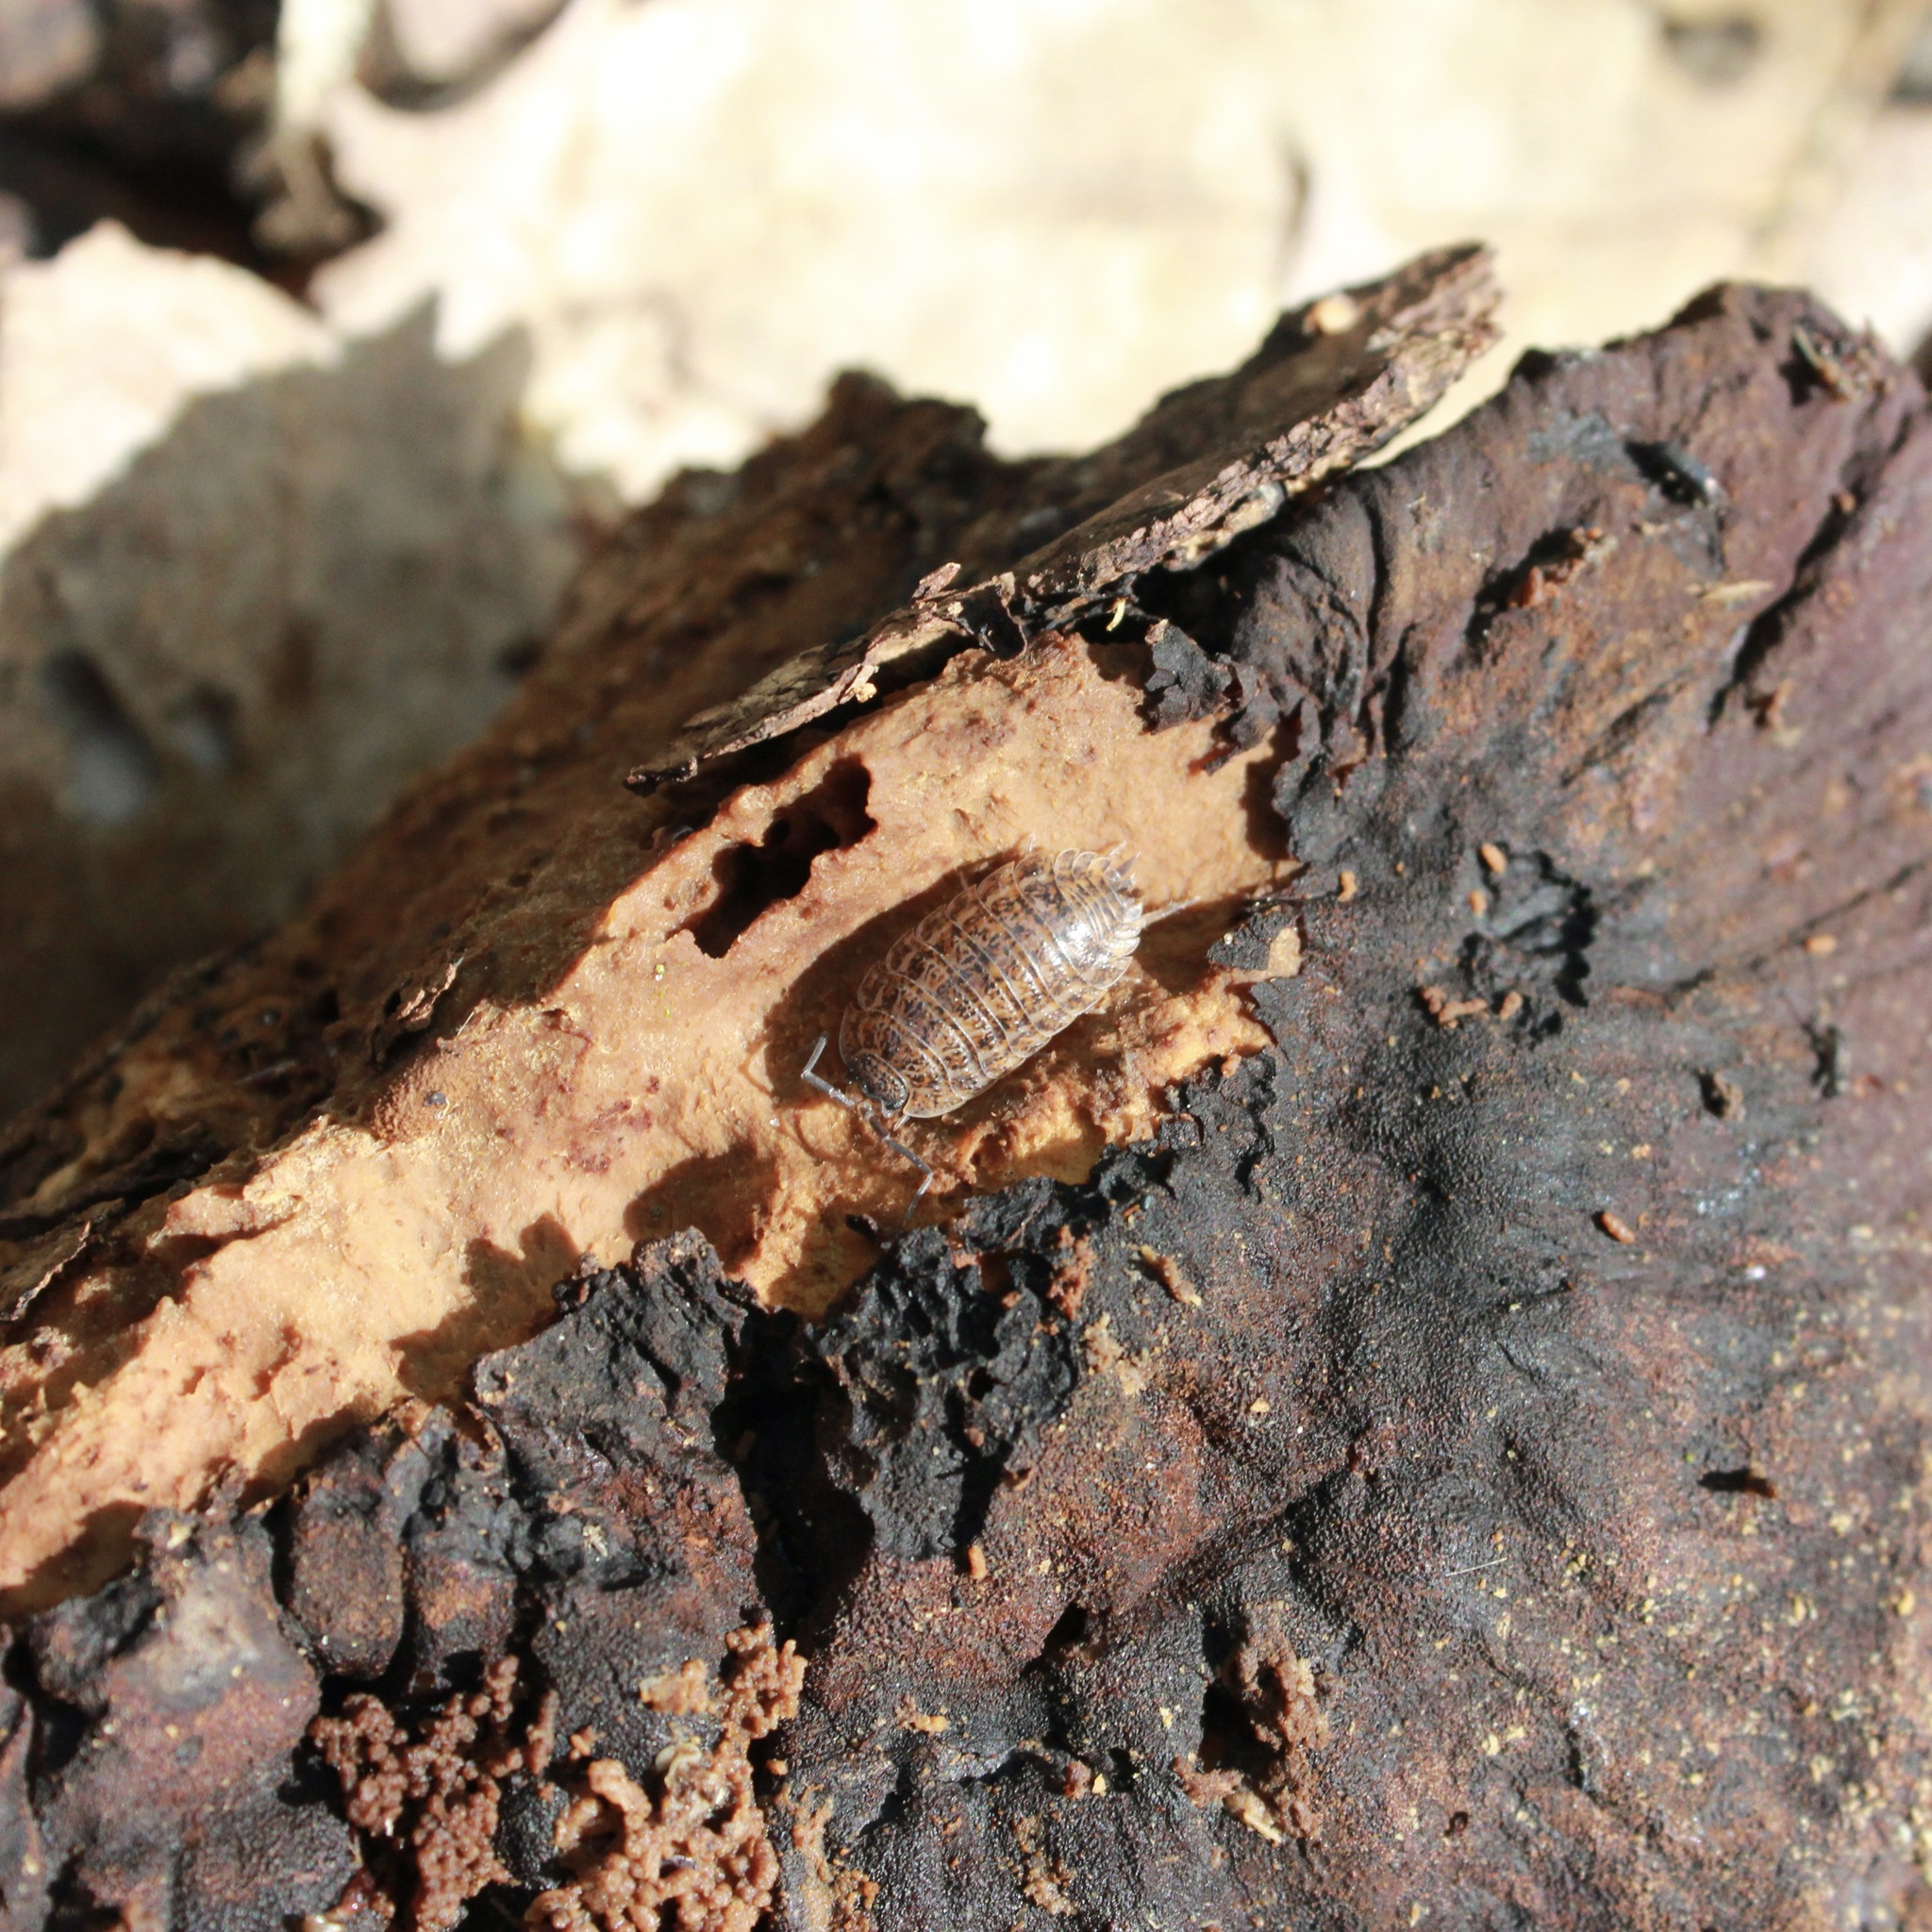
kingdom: Animalia
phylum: Arthropoda
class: Malacostraca
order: Isopoda
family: Trachelipodidae
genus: Trachelipus
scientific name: Trachelipus rathkii
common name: Isopod
